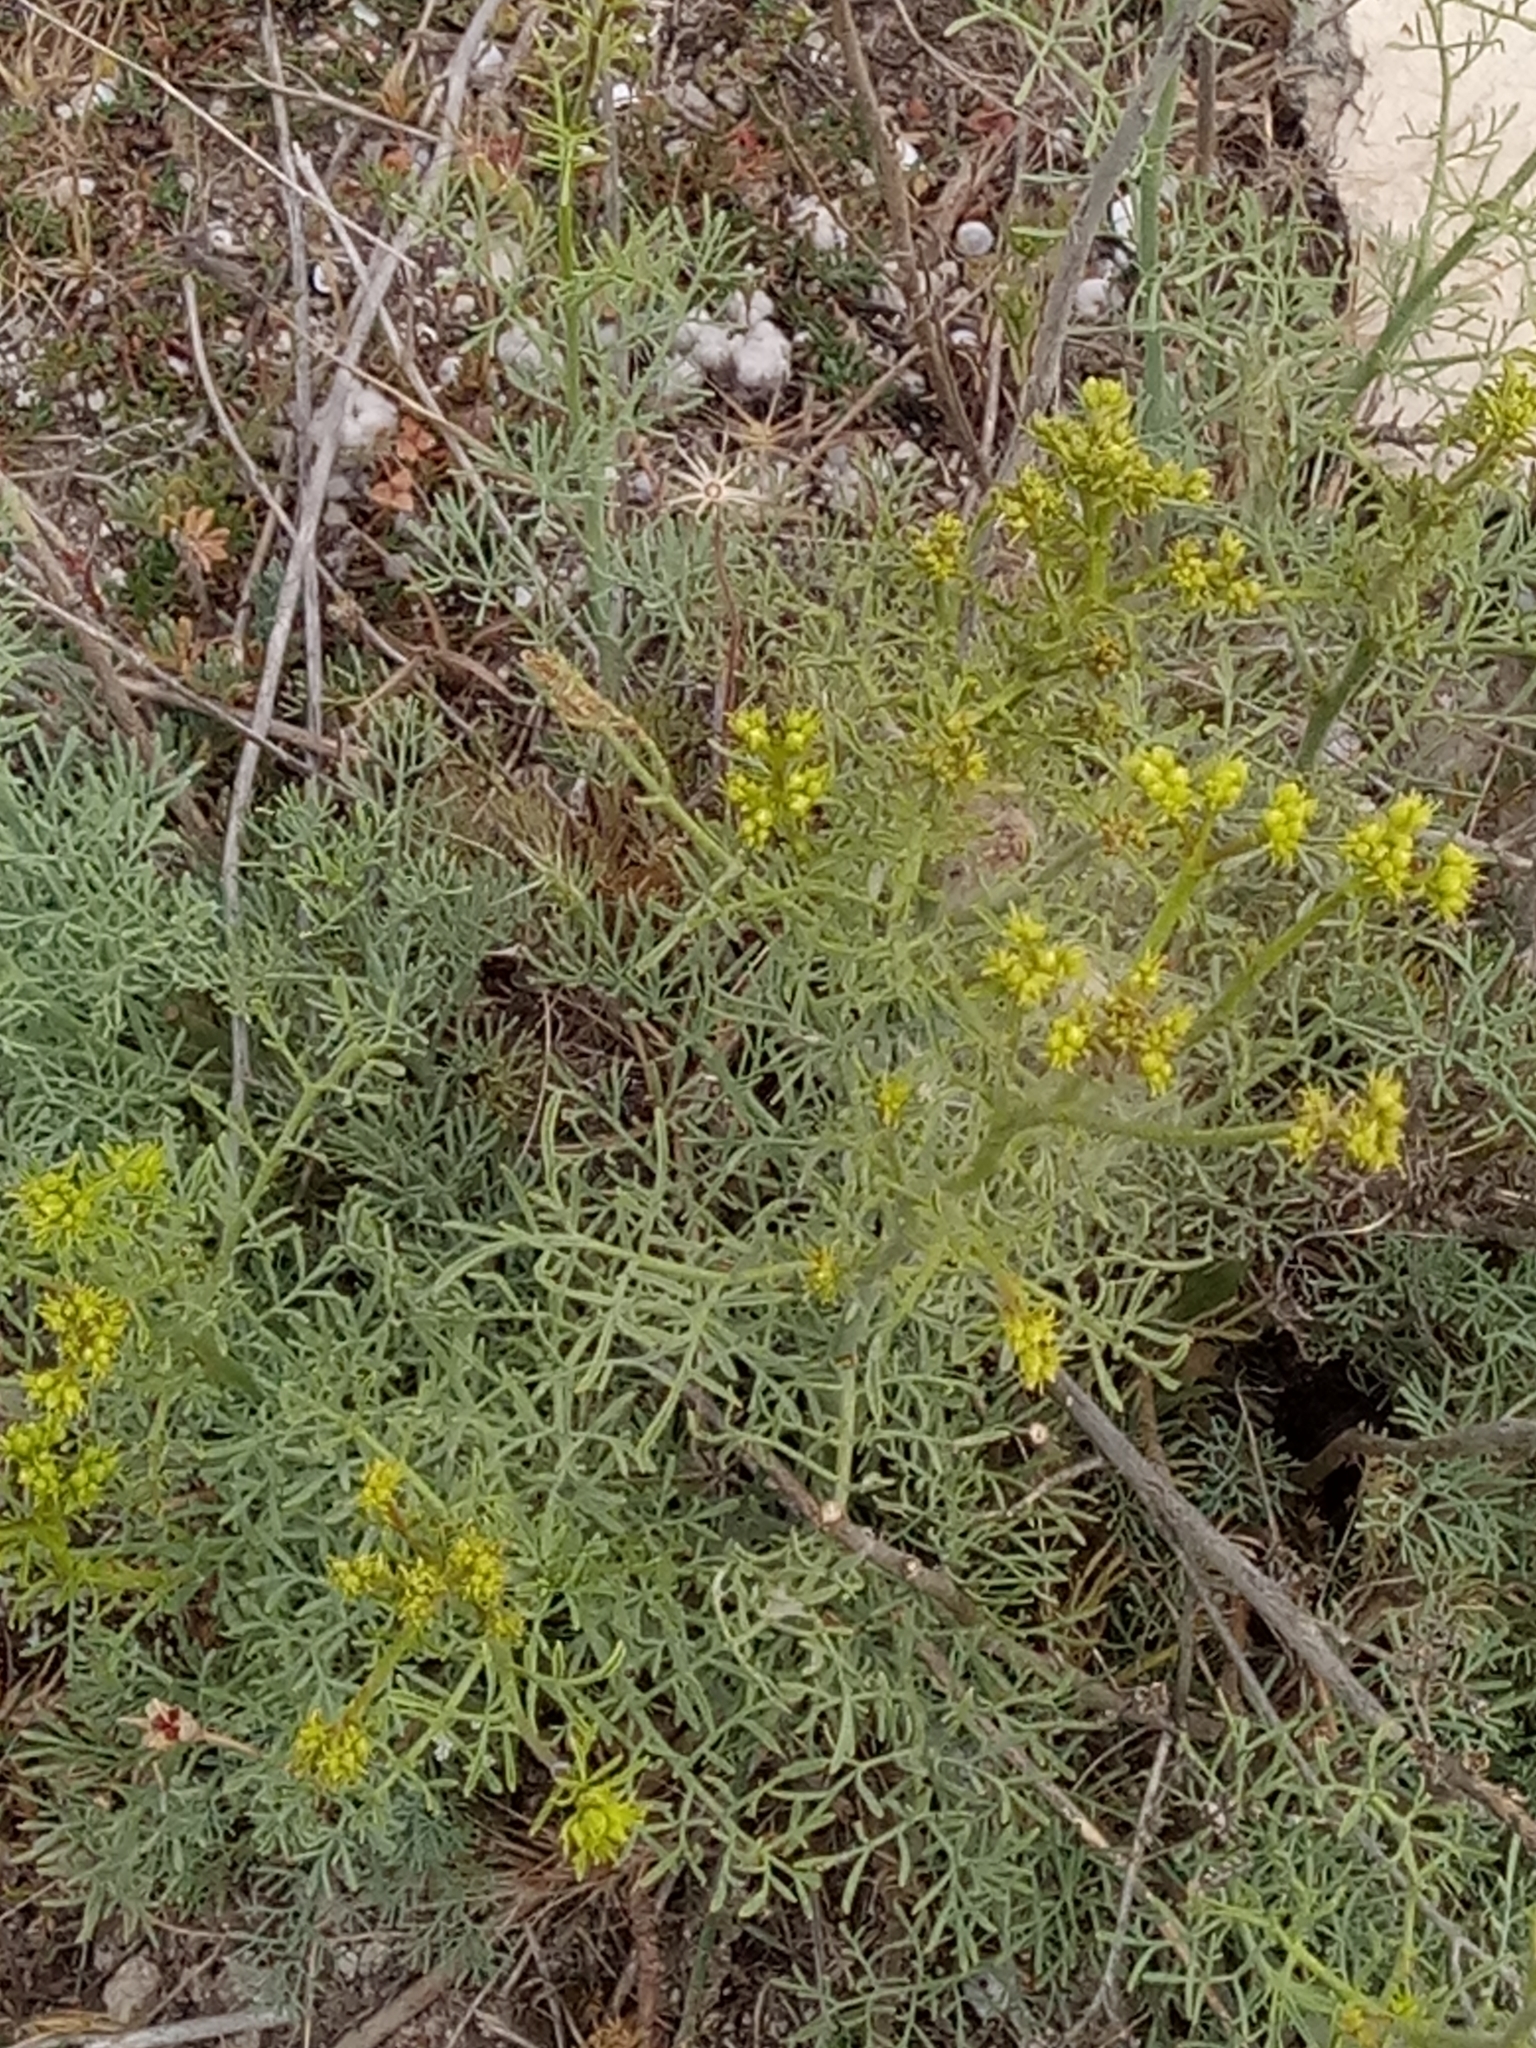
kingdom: Plantae
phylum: Tracheophyta
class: Magnoliopsida
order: Sapindales
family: Rutaceae
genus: Ruta
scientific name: Ruta montana
